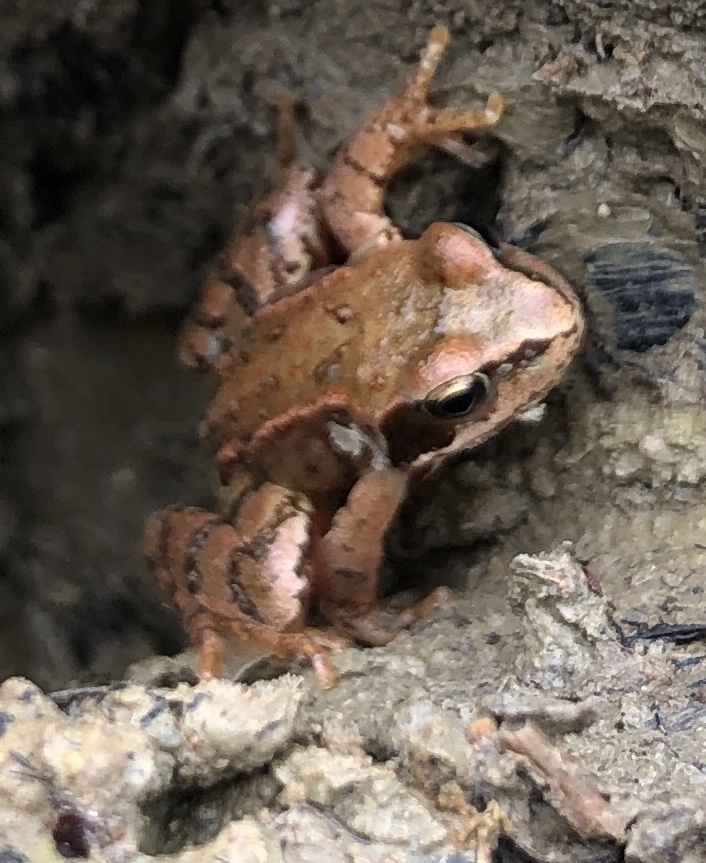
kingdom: Animalia
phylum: Chordata
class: Amphibia
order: Anura
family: Ranidae
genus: Rana
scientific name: Rana temporaria
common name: Common frog
